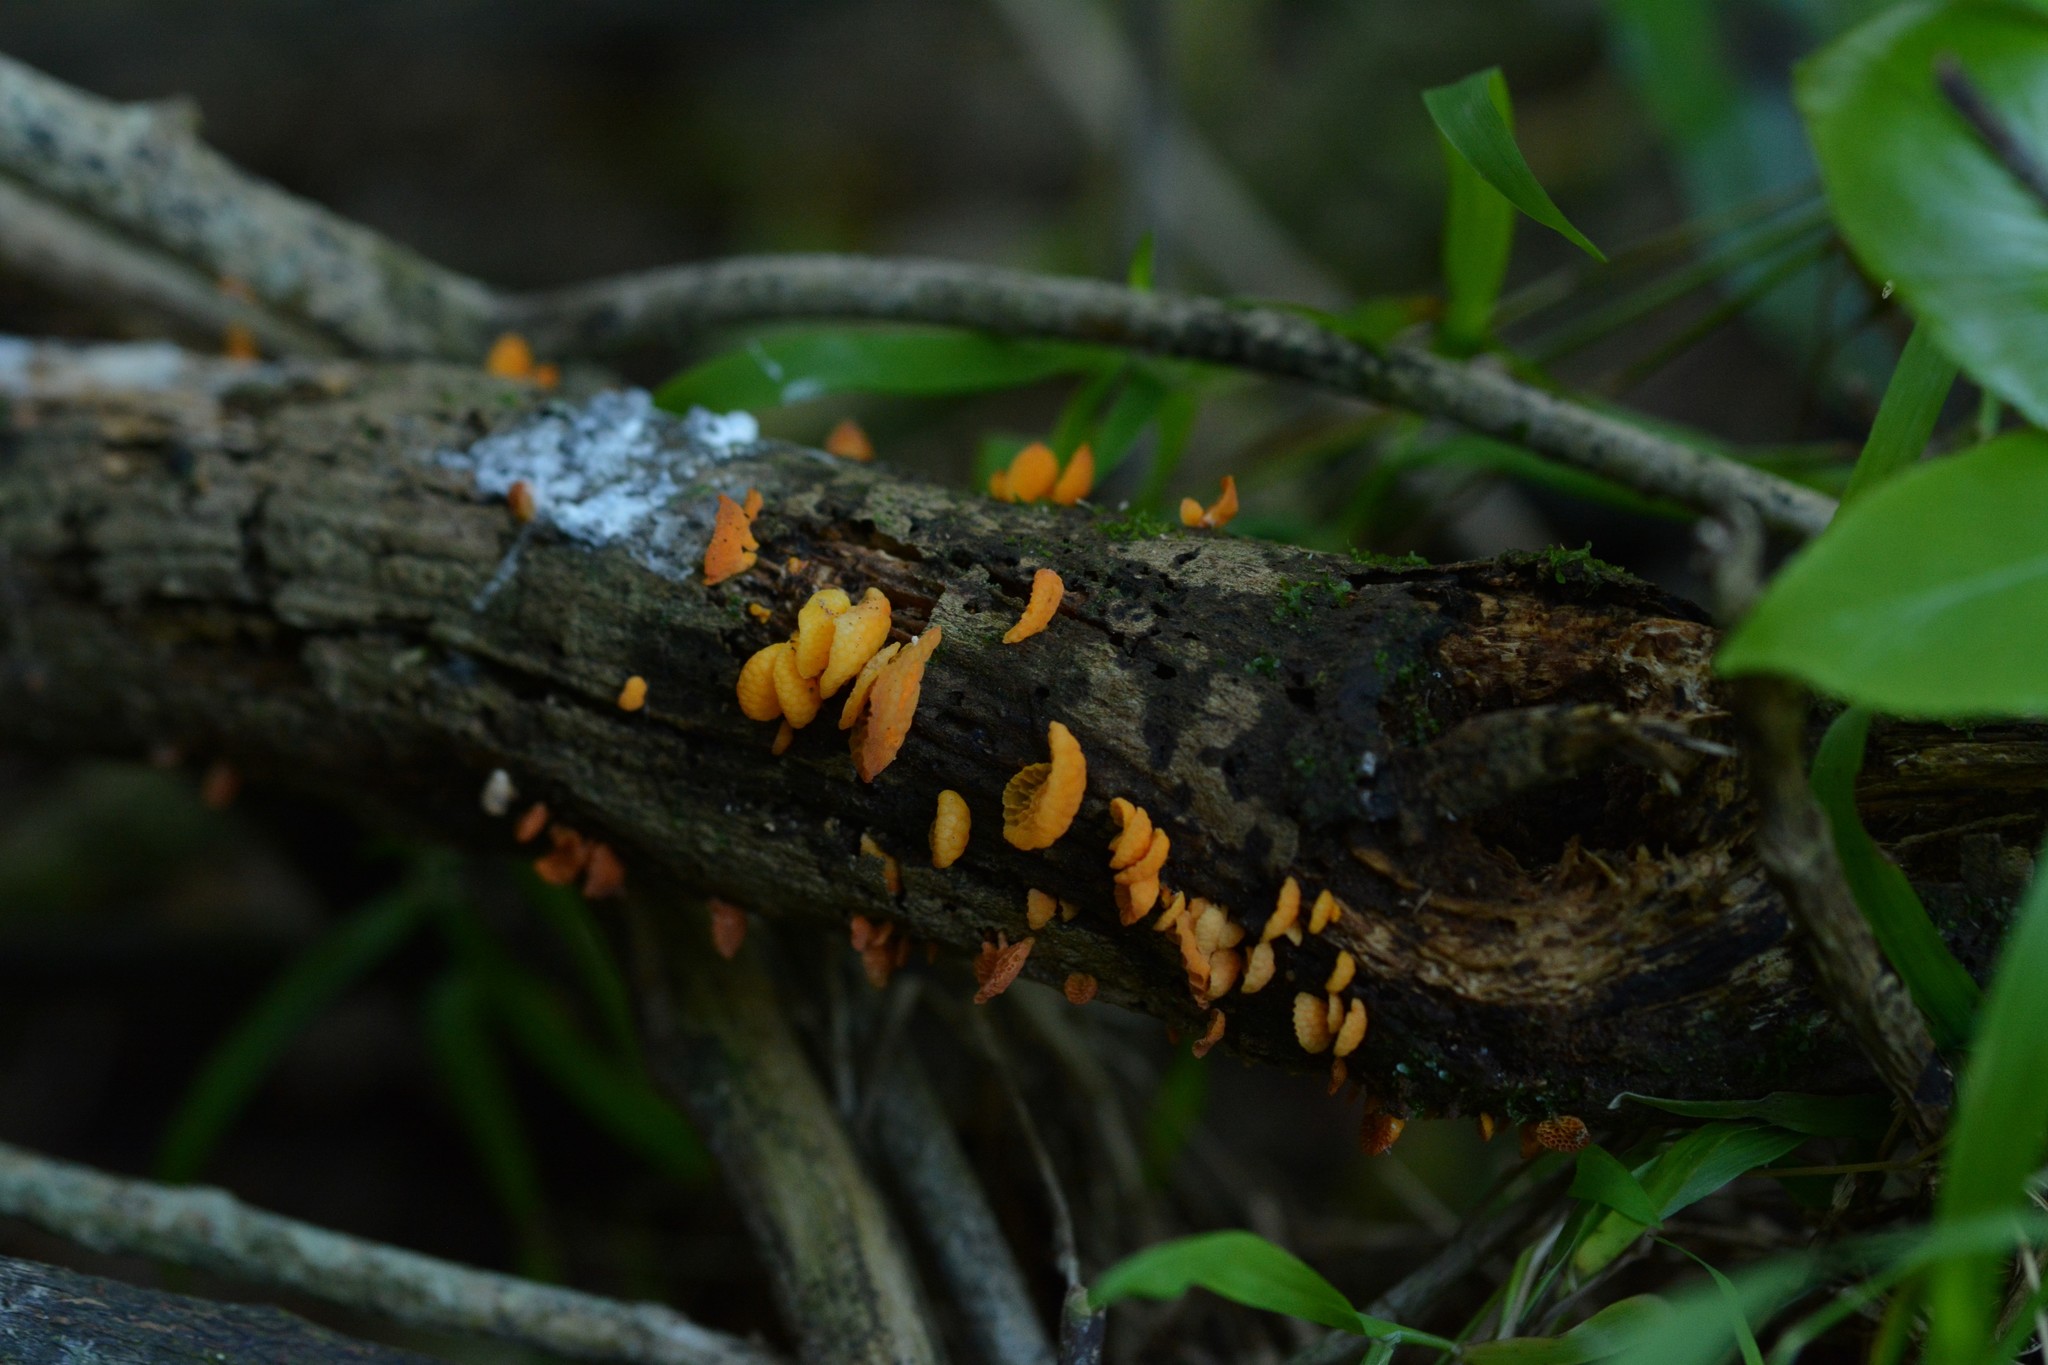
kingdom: Fungi
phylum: Basidiomycota
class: Agaricomycetes
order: Agaricales
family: Mycenaceae
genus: Favolaschia
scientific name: Favolaschia claudopus
